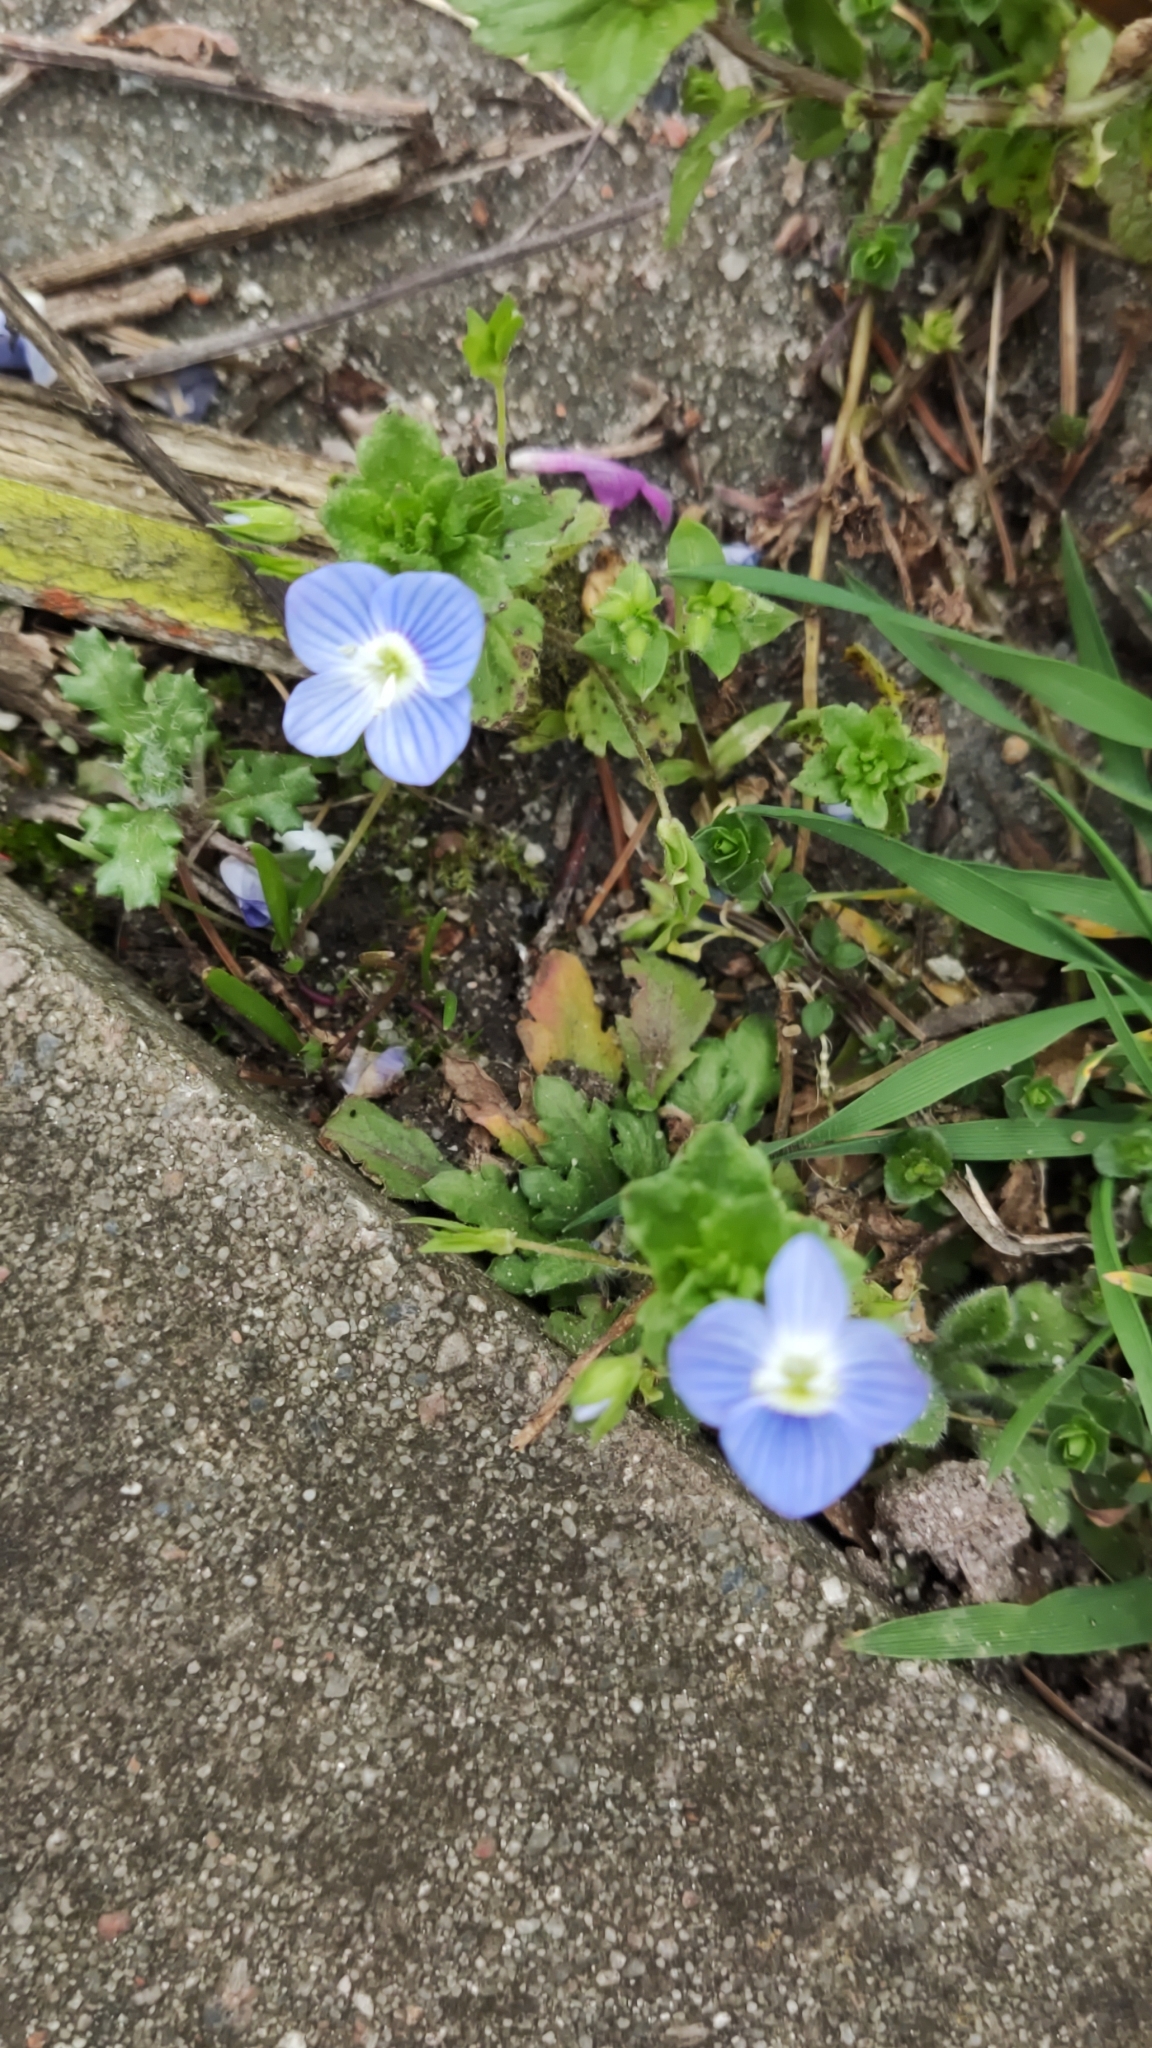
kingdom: Plantae
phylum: Tracheophyta
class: Magnoliopsida
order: Lamiales
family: Plantaginaceae
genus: Veronica
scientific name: Veronica persica
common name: Common field-speedwell
